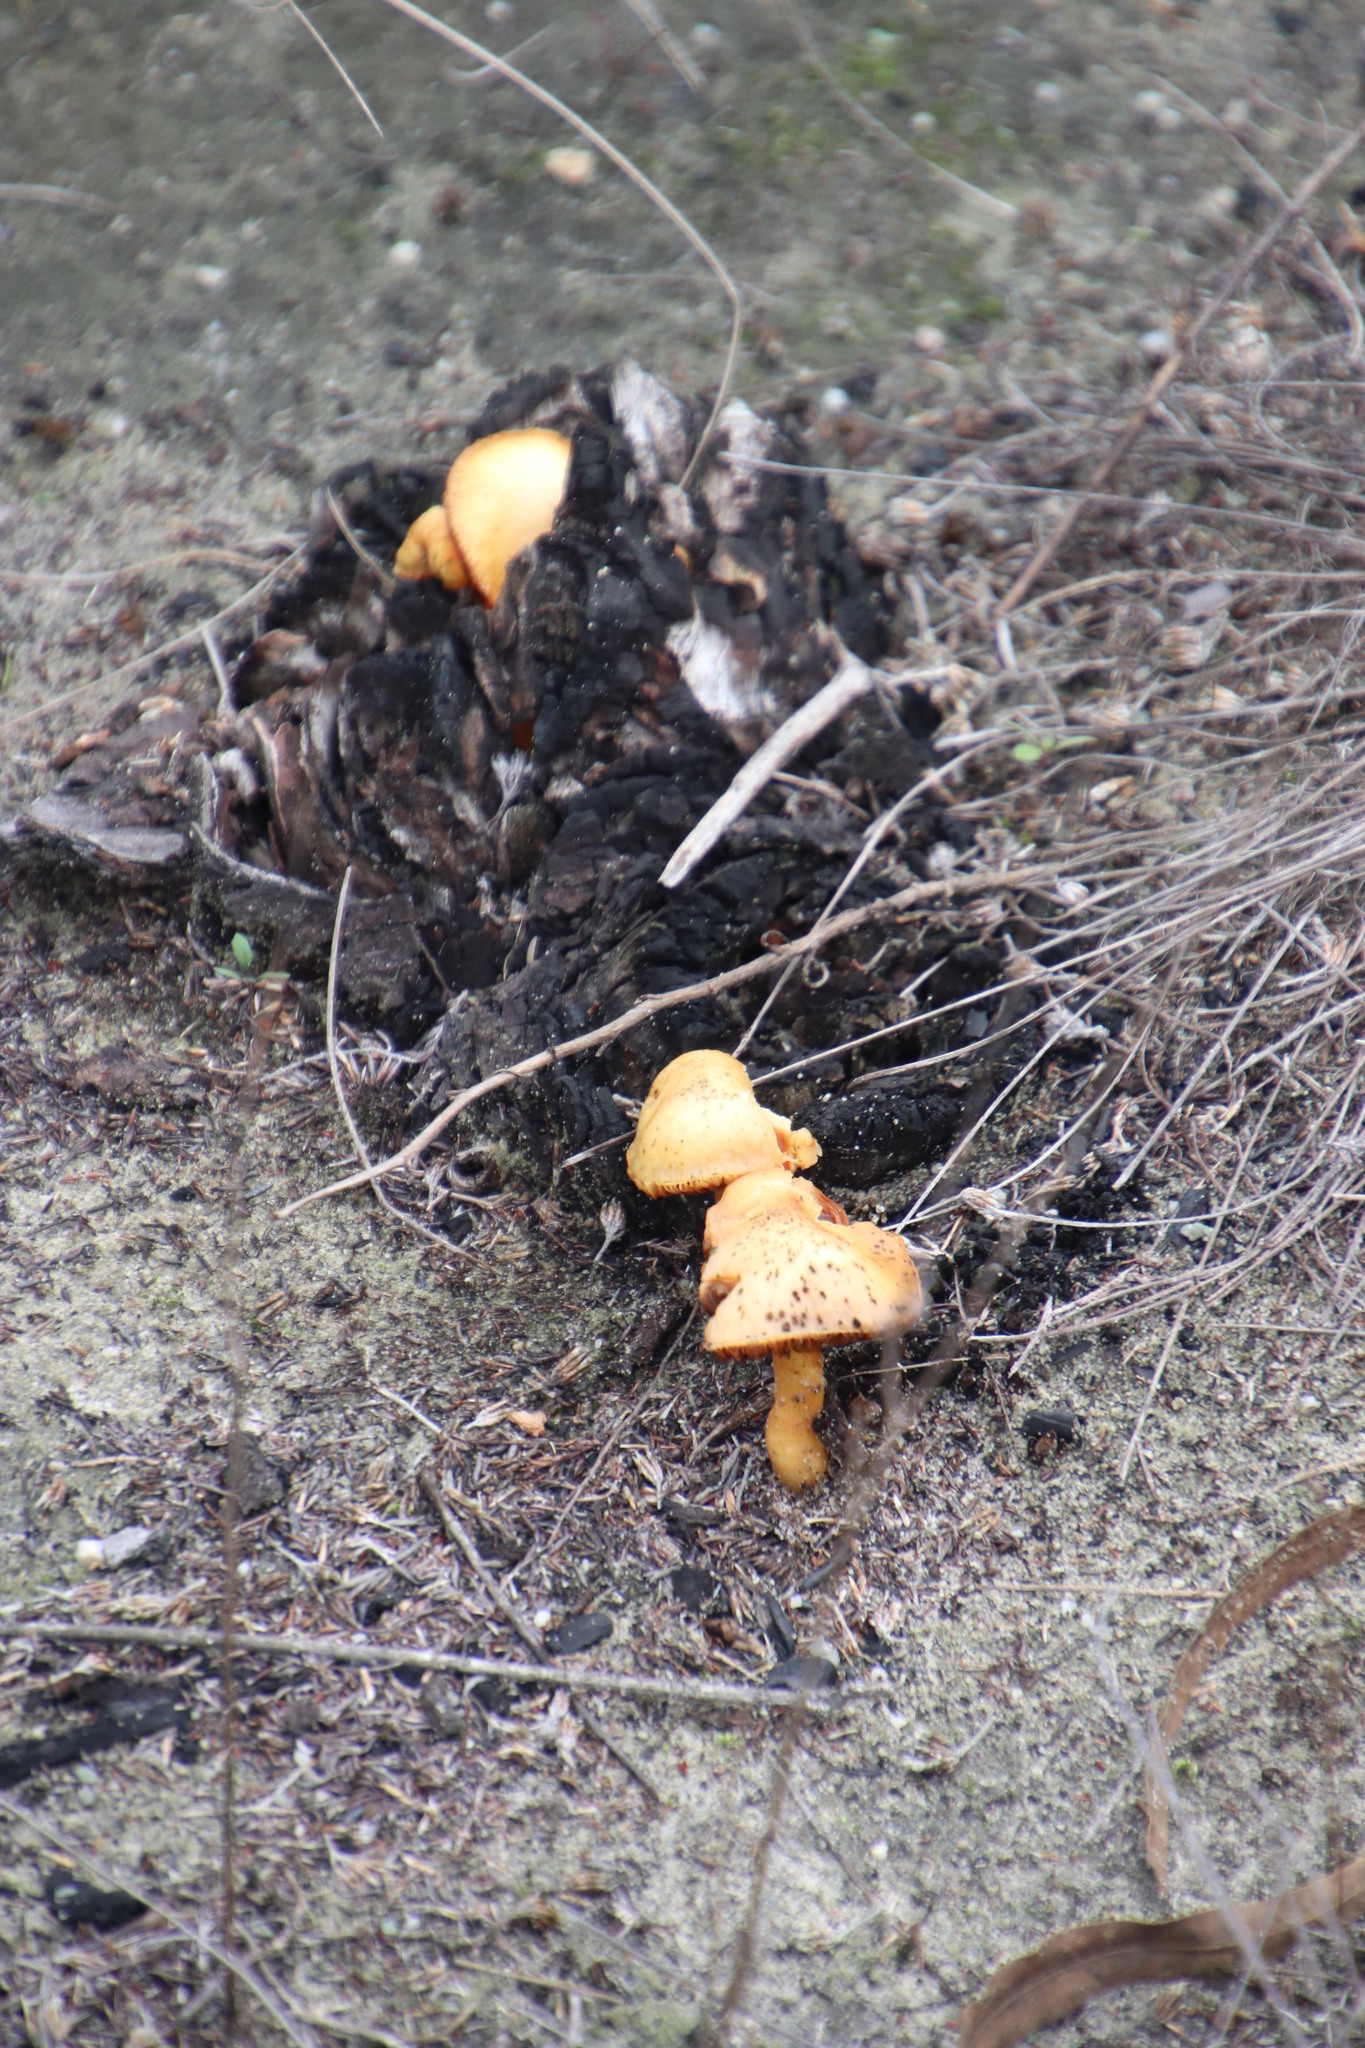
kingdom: Fungi
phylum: Basidiomycota
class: Agaricomycetes
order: Agaricales
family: Hymenogastraceae
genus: Gymnopilus
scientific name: Gymnopilus penetrans
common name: Common rustgill
